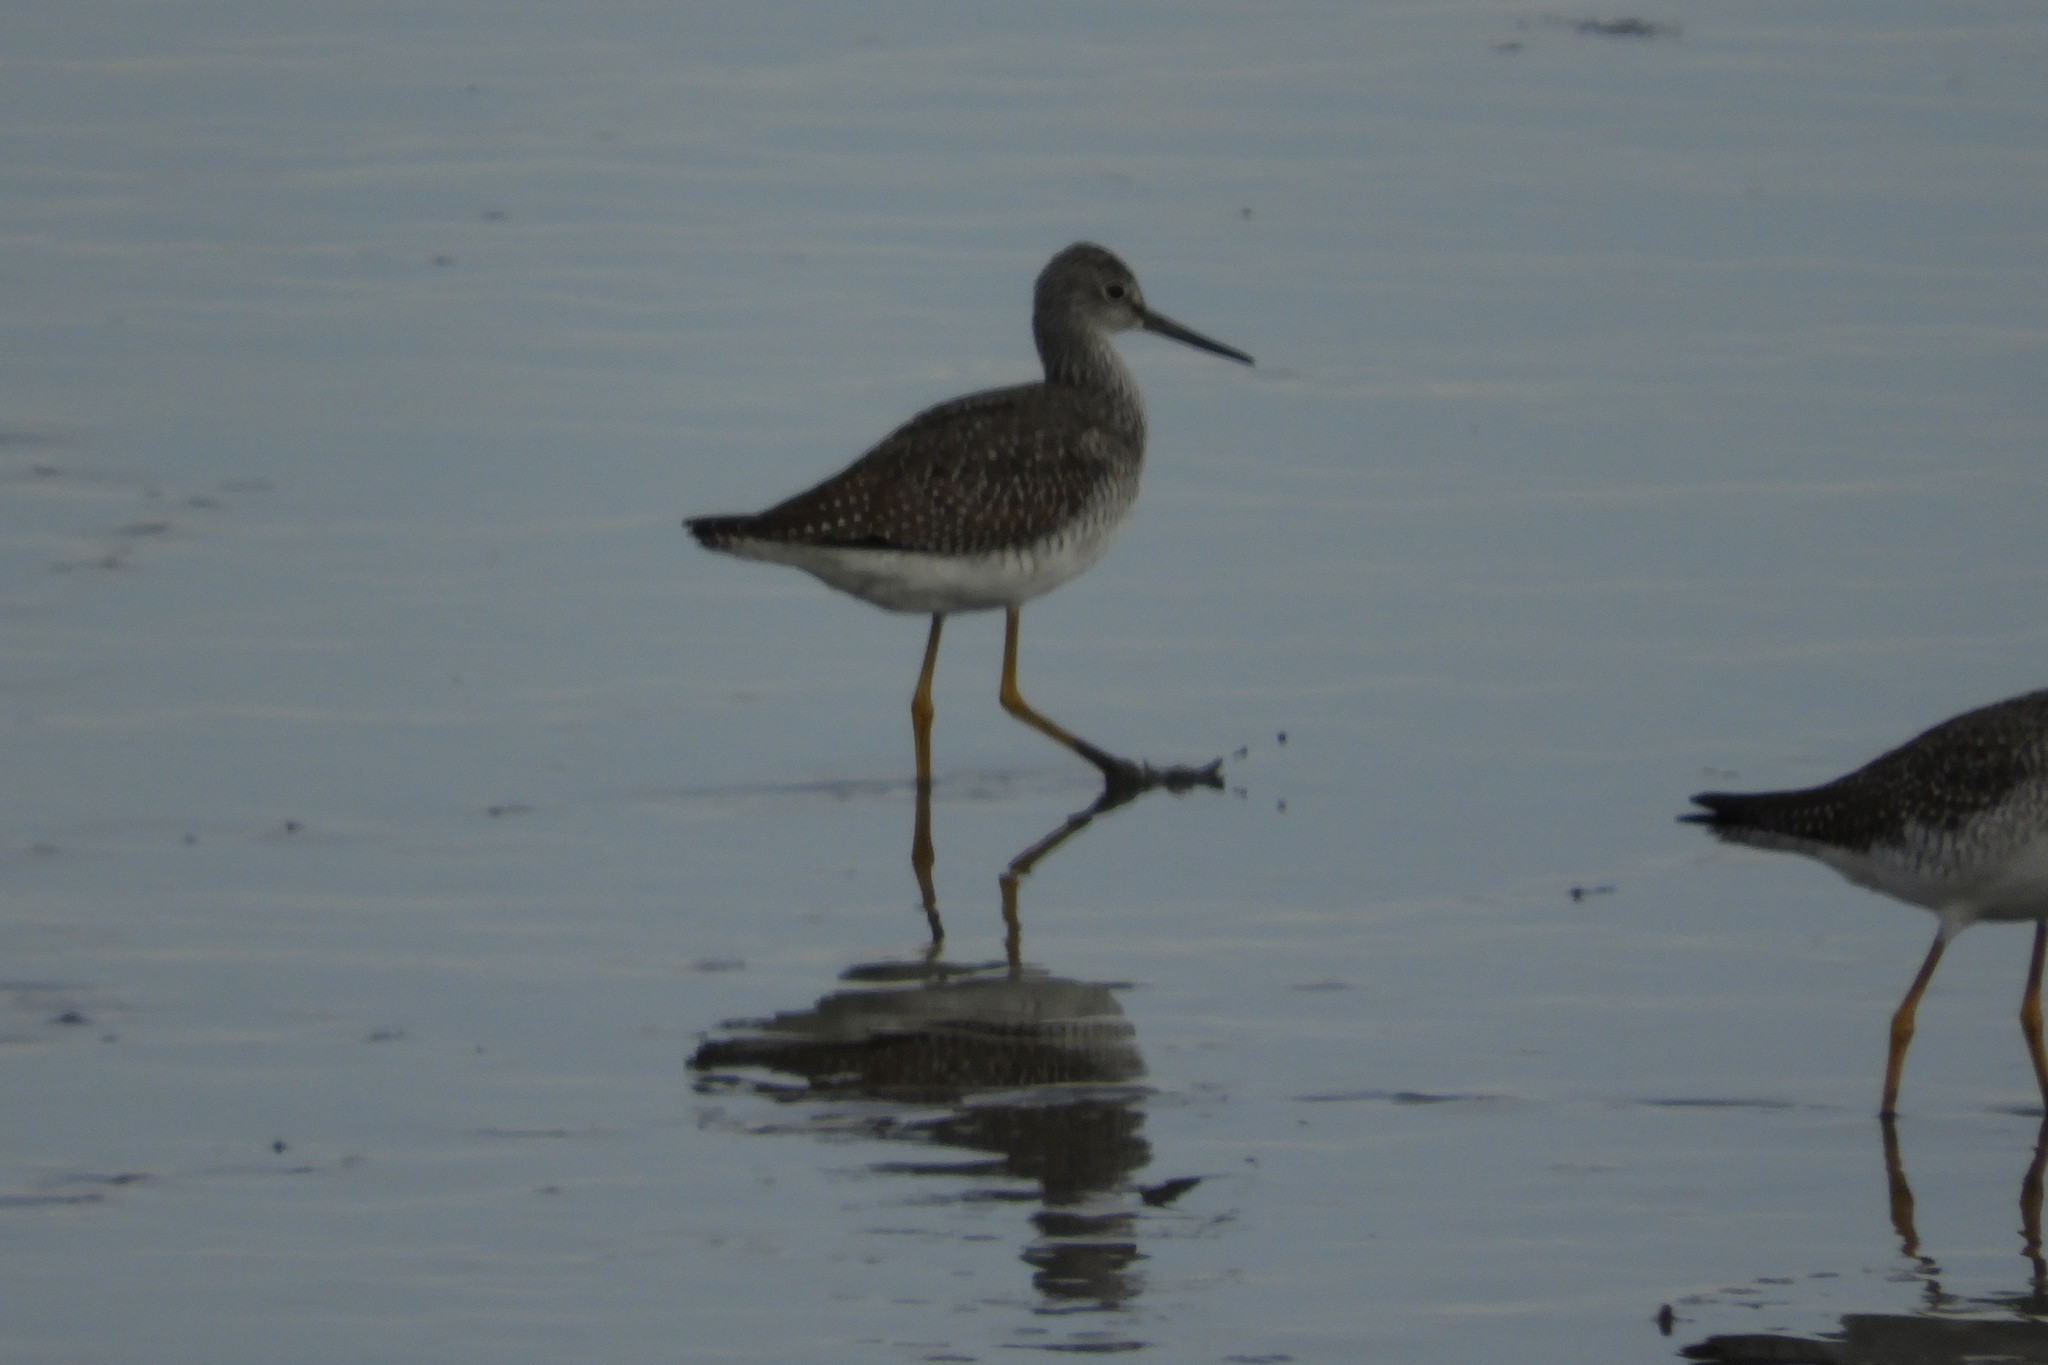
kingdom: Animalia
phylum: Chordata
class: Aves
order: Charadriiformes
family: Scolopacidae
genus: Tringa
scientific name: Tringa melanoleuca
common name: Greater yellowlegs
